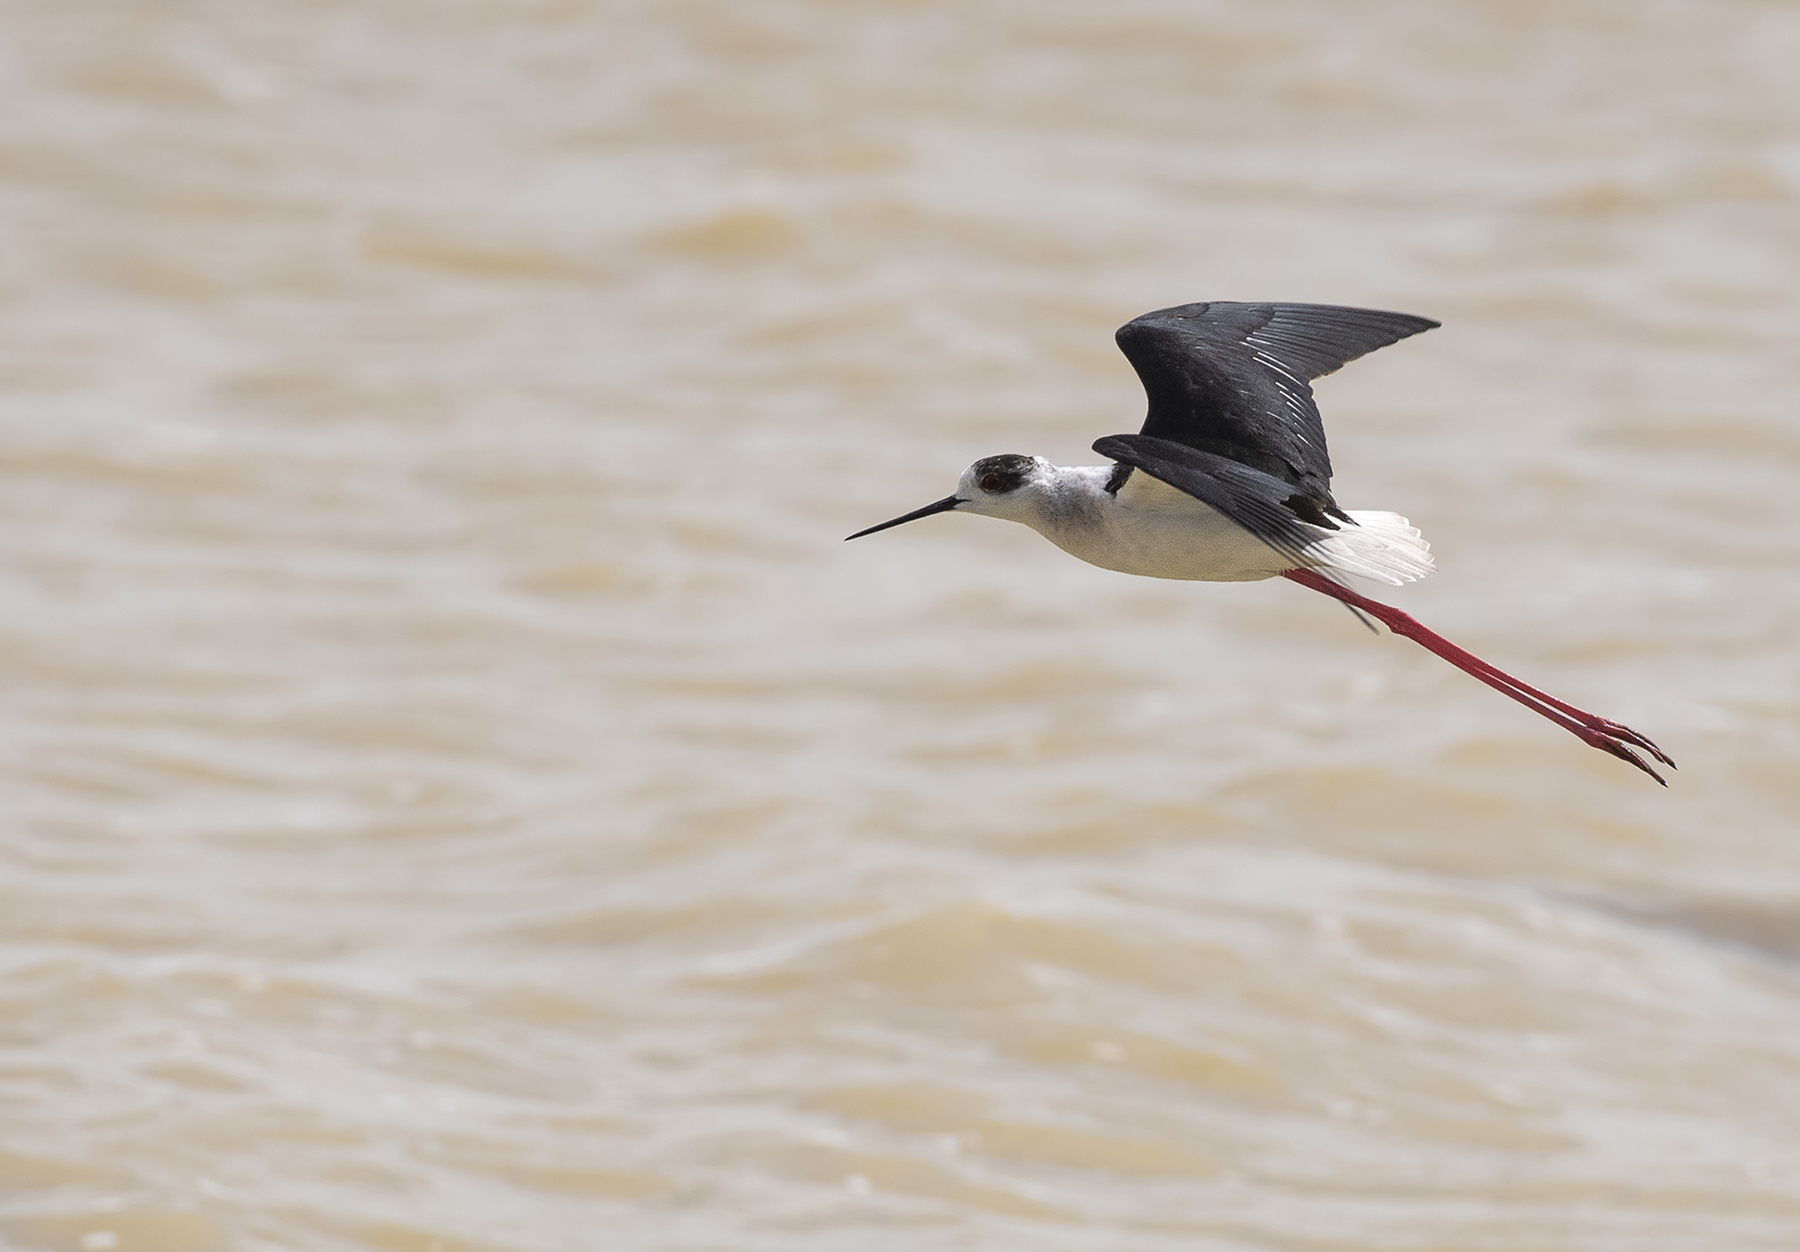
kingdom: Animalia
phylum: Chordata
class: Aves
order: Charadriiformes
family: Recurvirostridae
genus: Himantopus
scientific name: Himantopus himantopus
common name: Black-winged stilt
